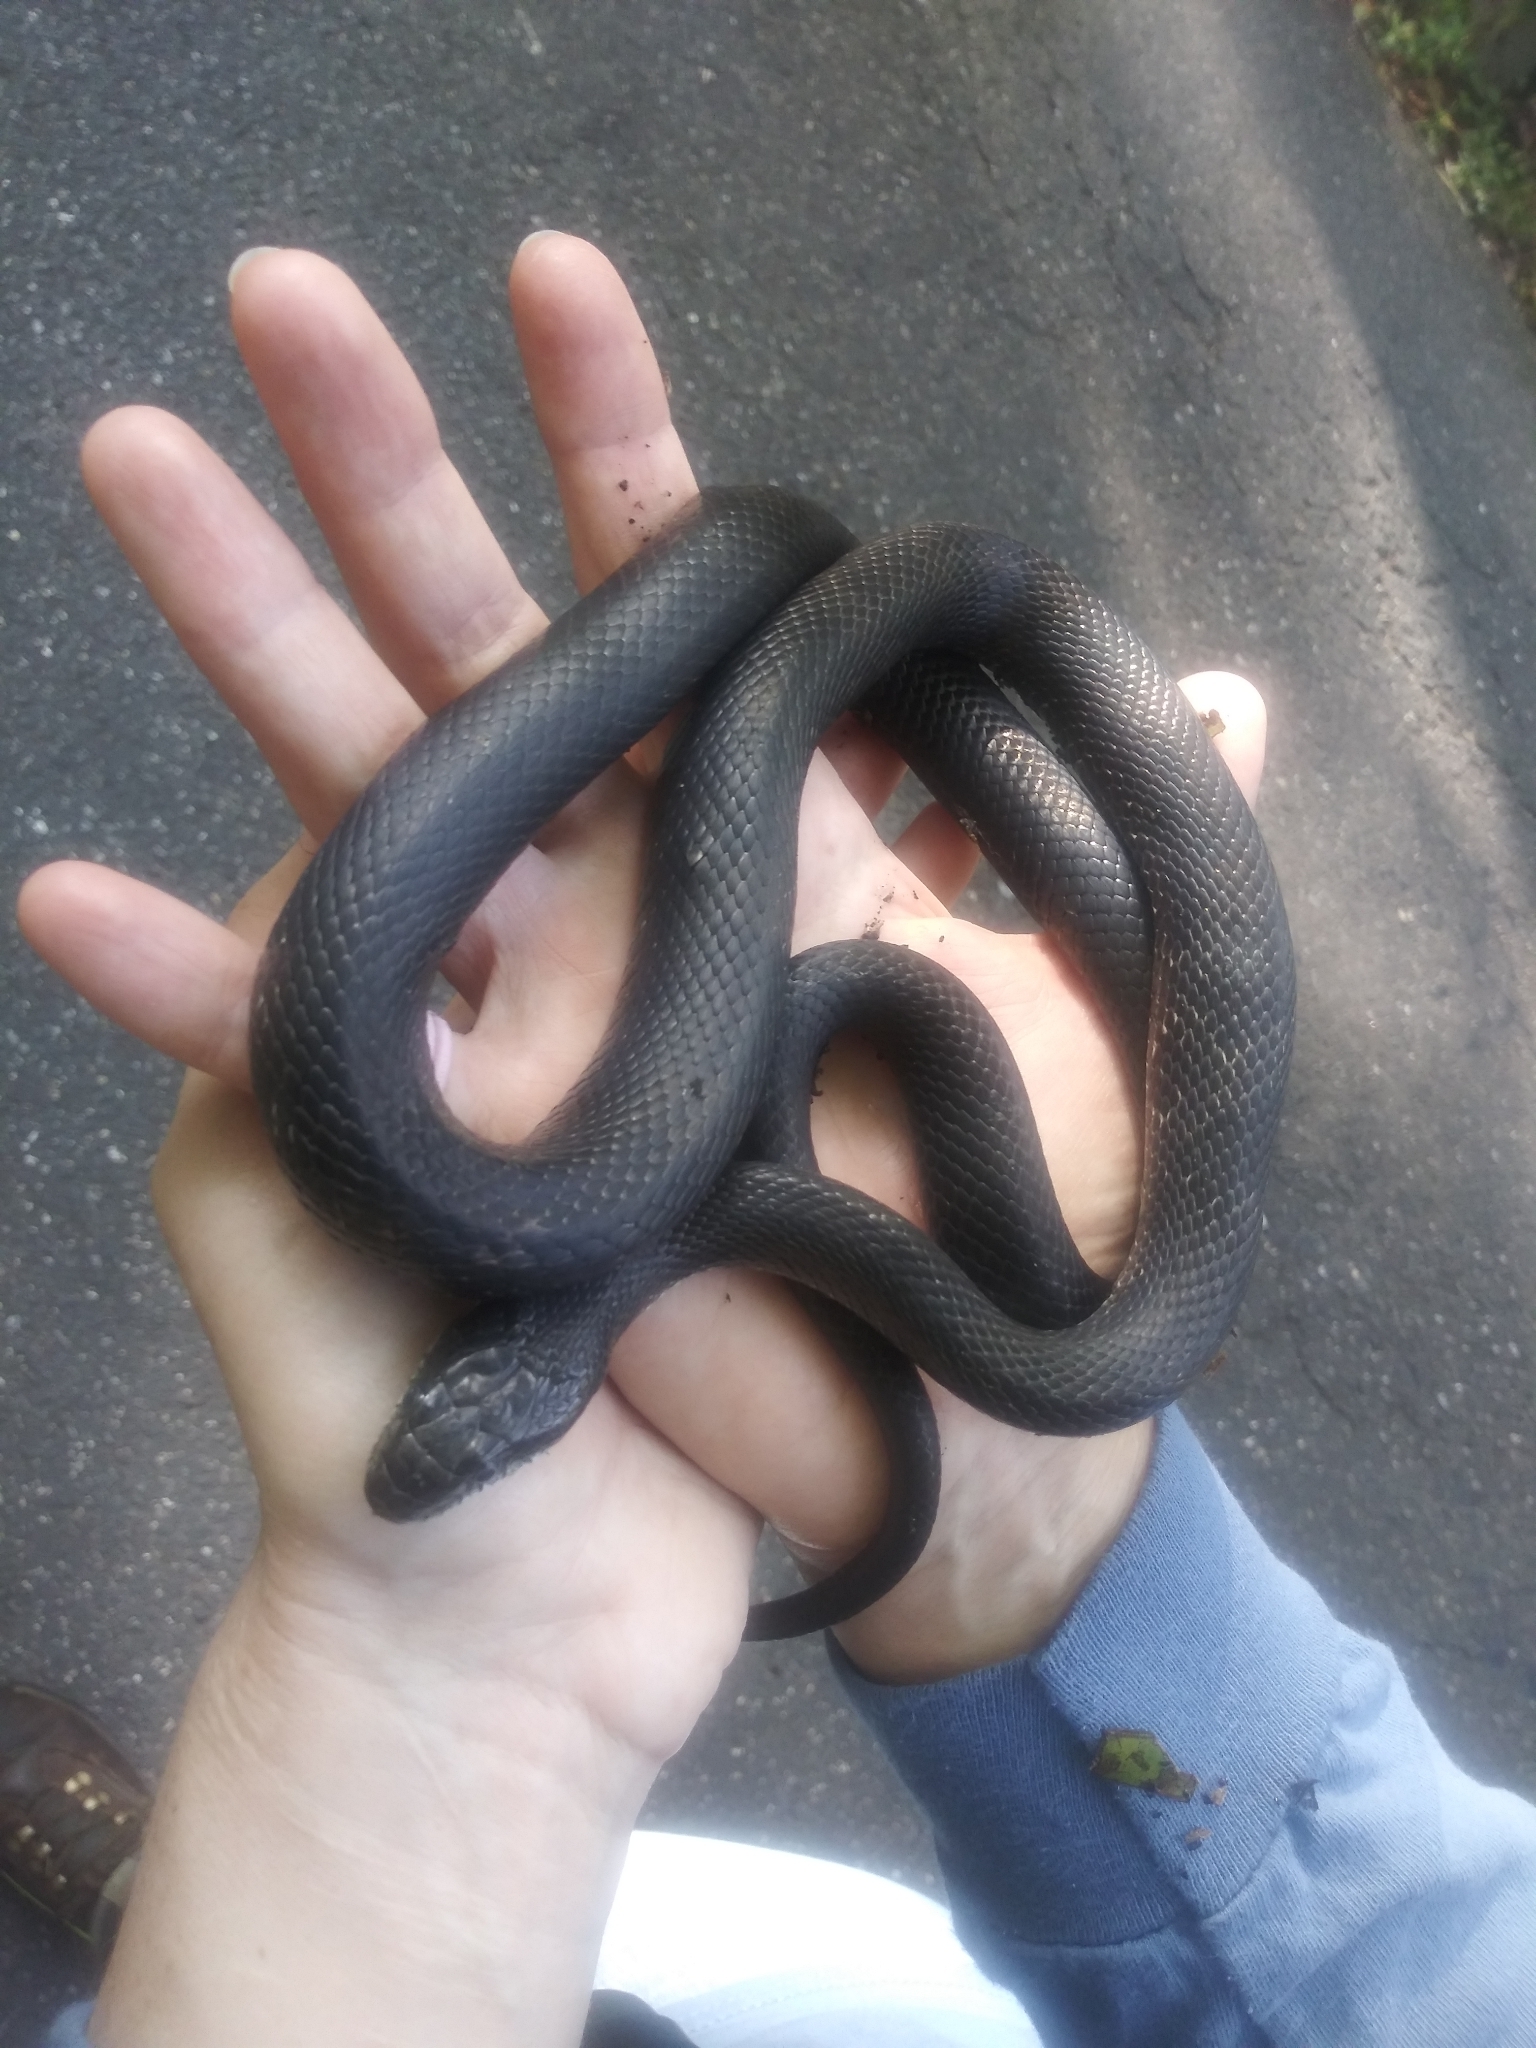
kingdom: Animalia
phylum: Chordata
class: Squamata
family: Colubridae
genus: Pantherophis
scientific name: Pantherophis
